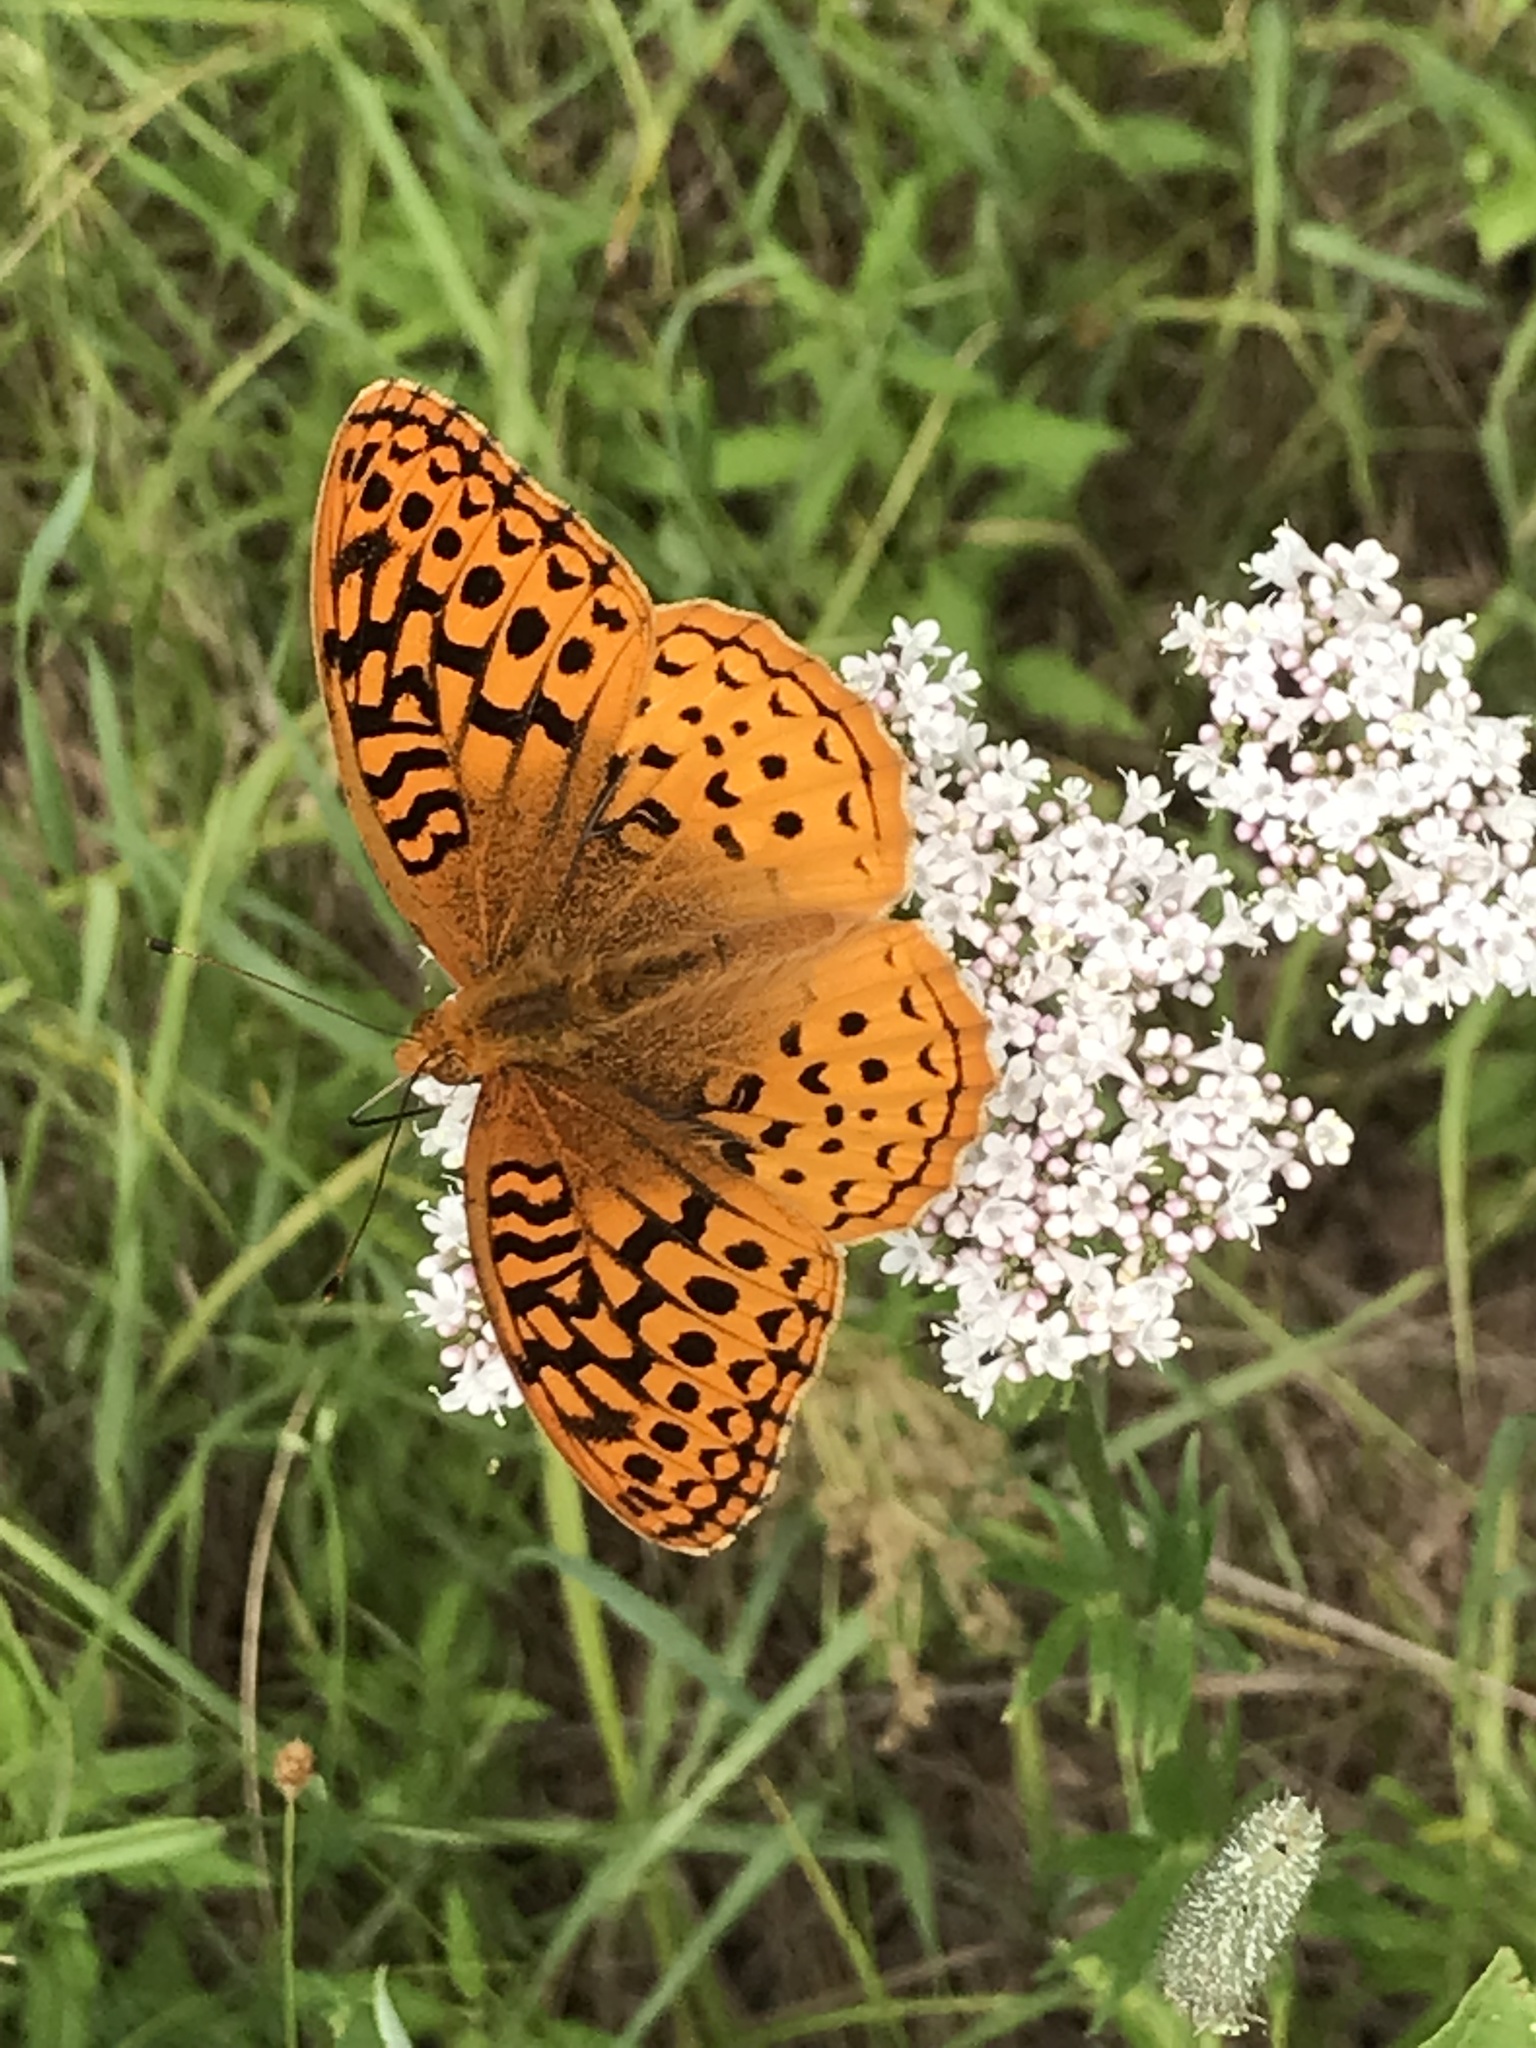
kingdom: Animalia
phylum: Arthropoda
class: Insecta
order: Lepidoptera
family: Nymphalidae
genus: Speyeria
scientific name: Speyeria cybele
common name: Great spangled fritillary
